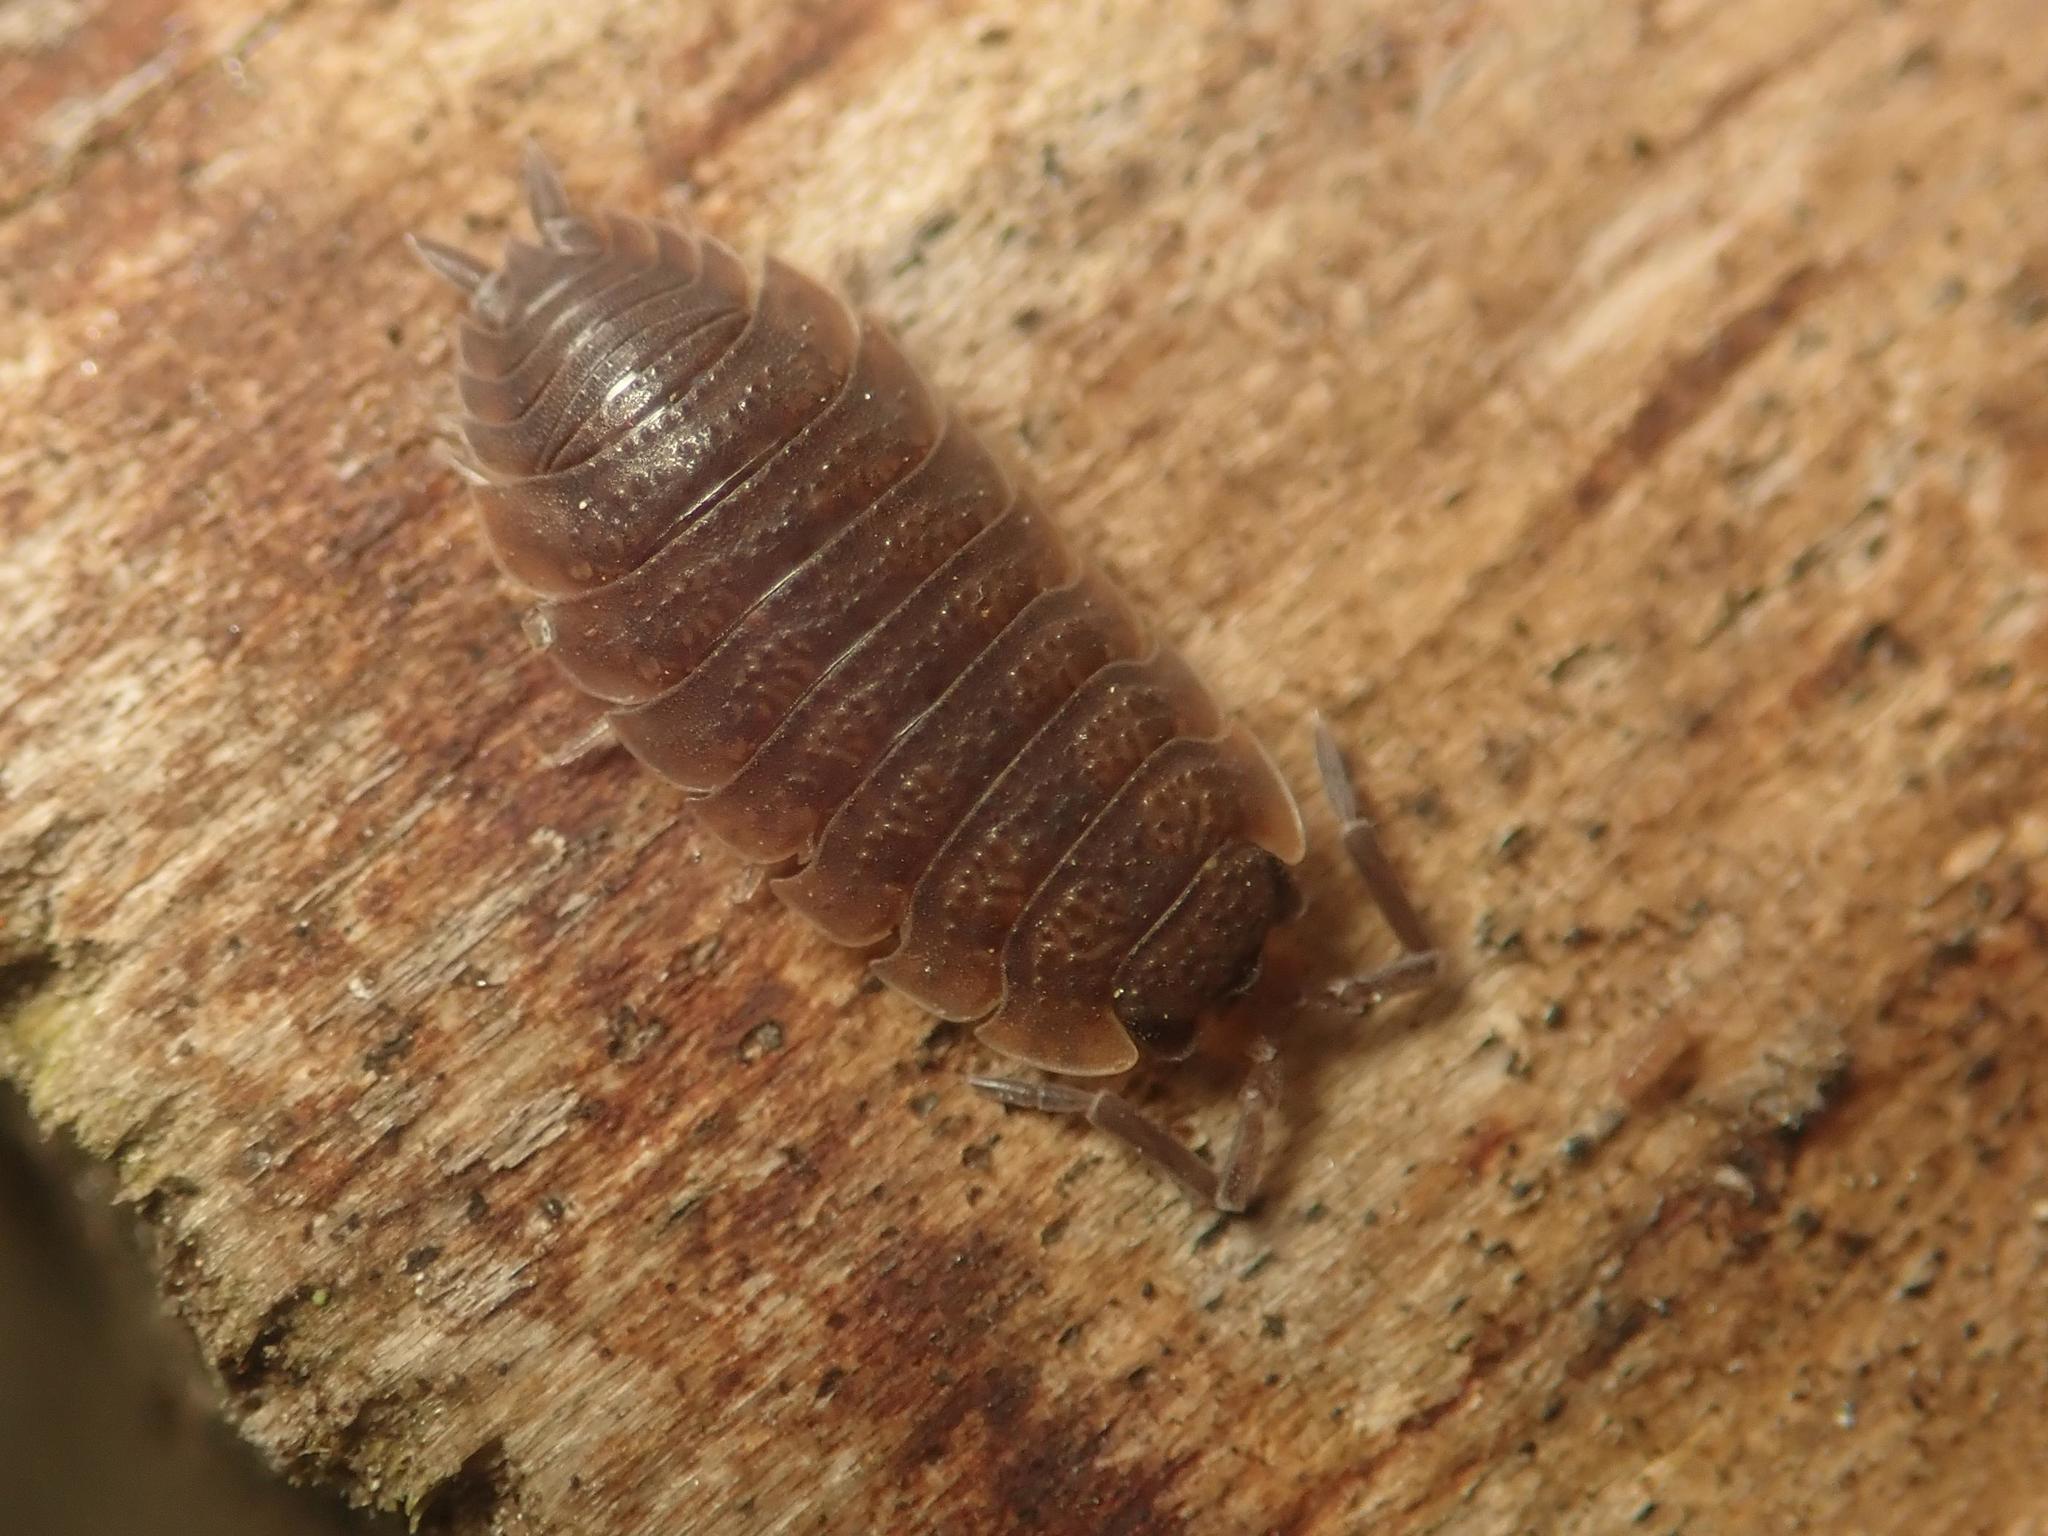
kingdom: Animalia
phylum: Arthropoda
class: Malacostraca
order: Isopoda
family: Porcellionidae
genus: Porcellio
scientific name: Porcellio scaber
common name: Common rough woodlouse
